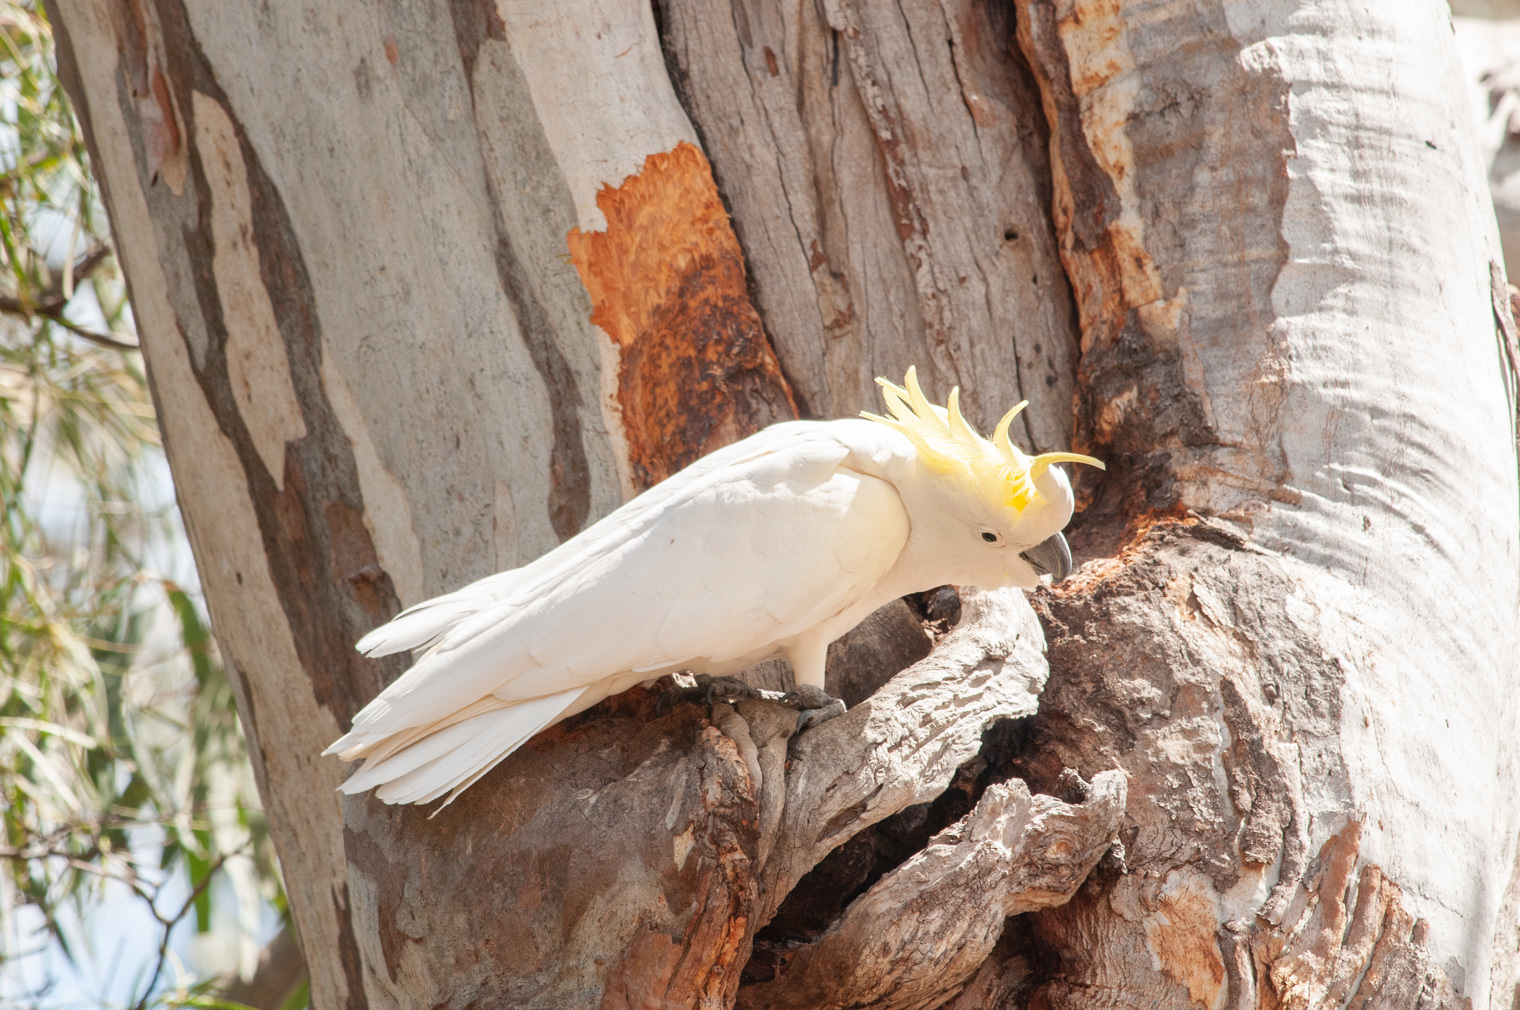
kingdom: Animalia
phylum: Chordata
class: Aves
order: Psittaciformes
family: Psittacidae
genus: Cacatua
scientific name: Cacatua galerita
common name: Sulphur-crested cockatoo
